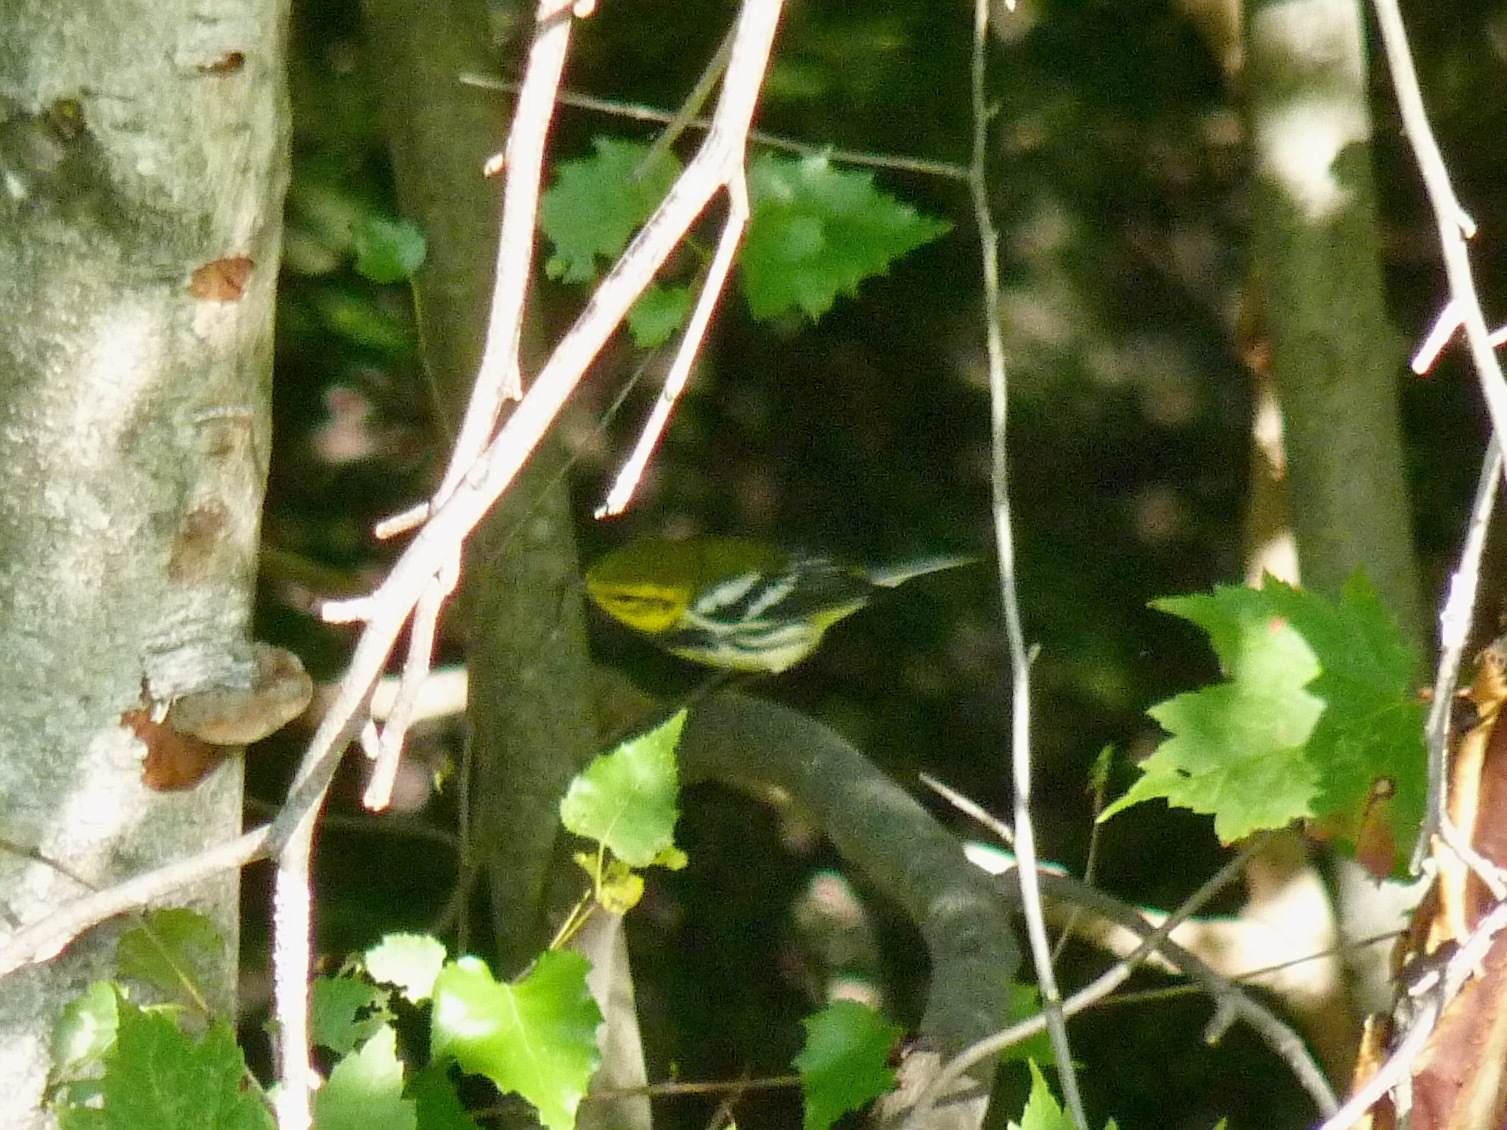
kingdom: Animalia
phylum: Chordata
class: Aves
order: Passeriformes
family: Parulidae
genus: Setophaga
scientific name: Setophaga virens
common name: Black-throated green warbler
